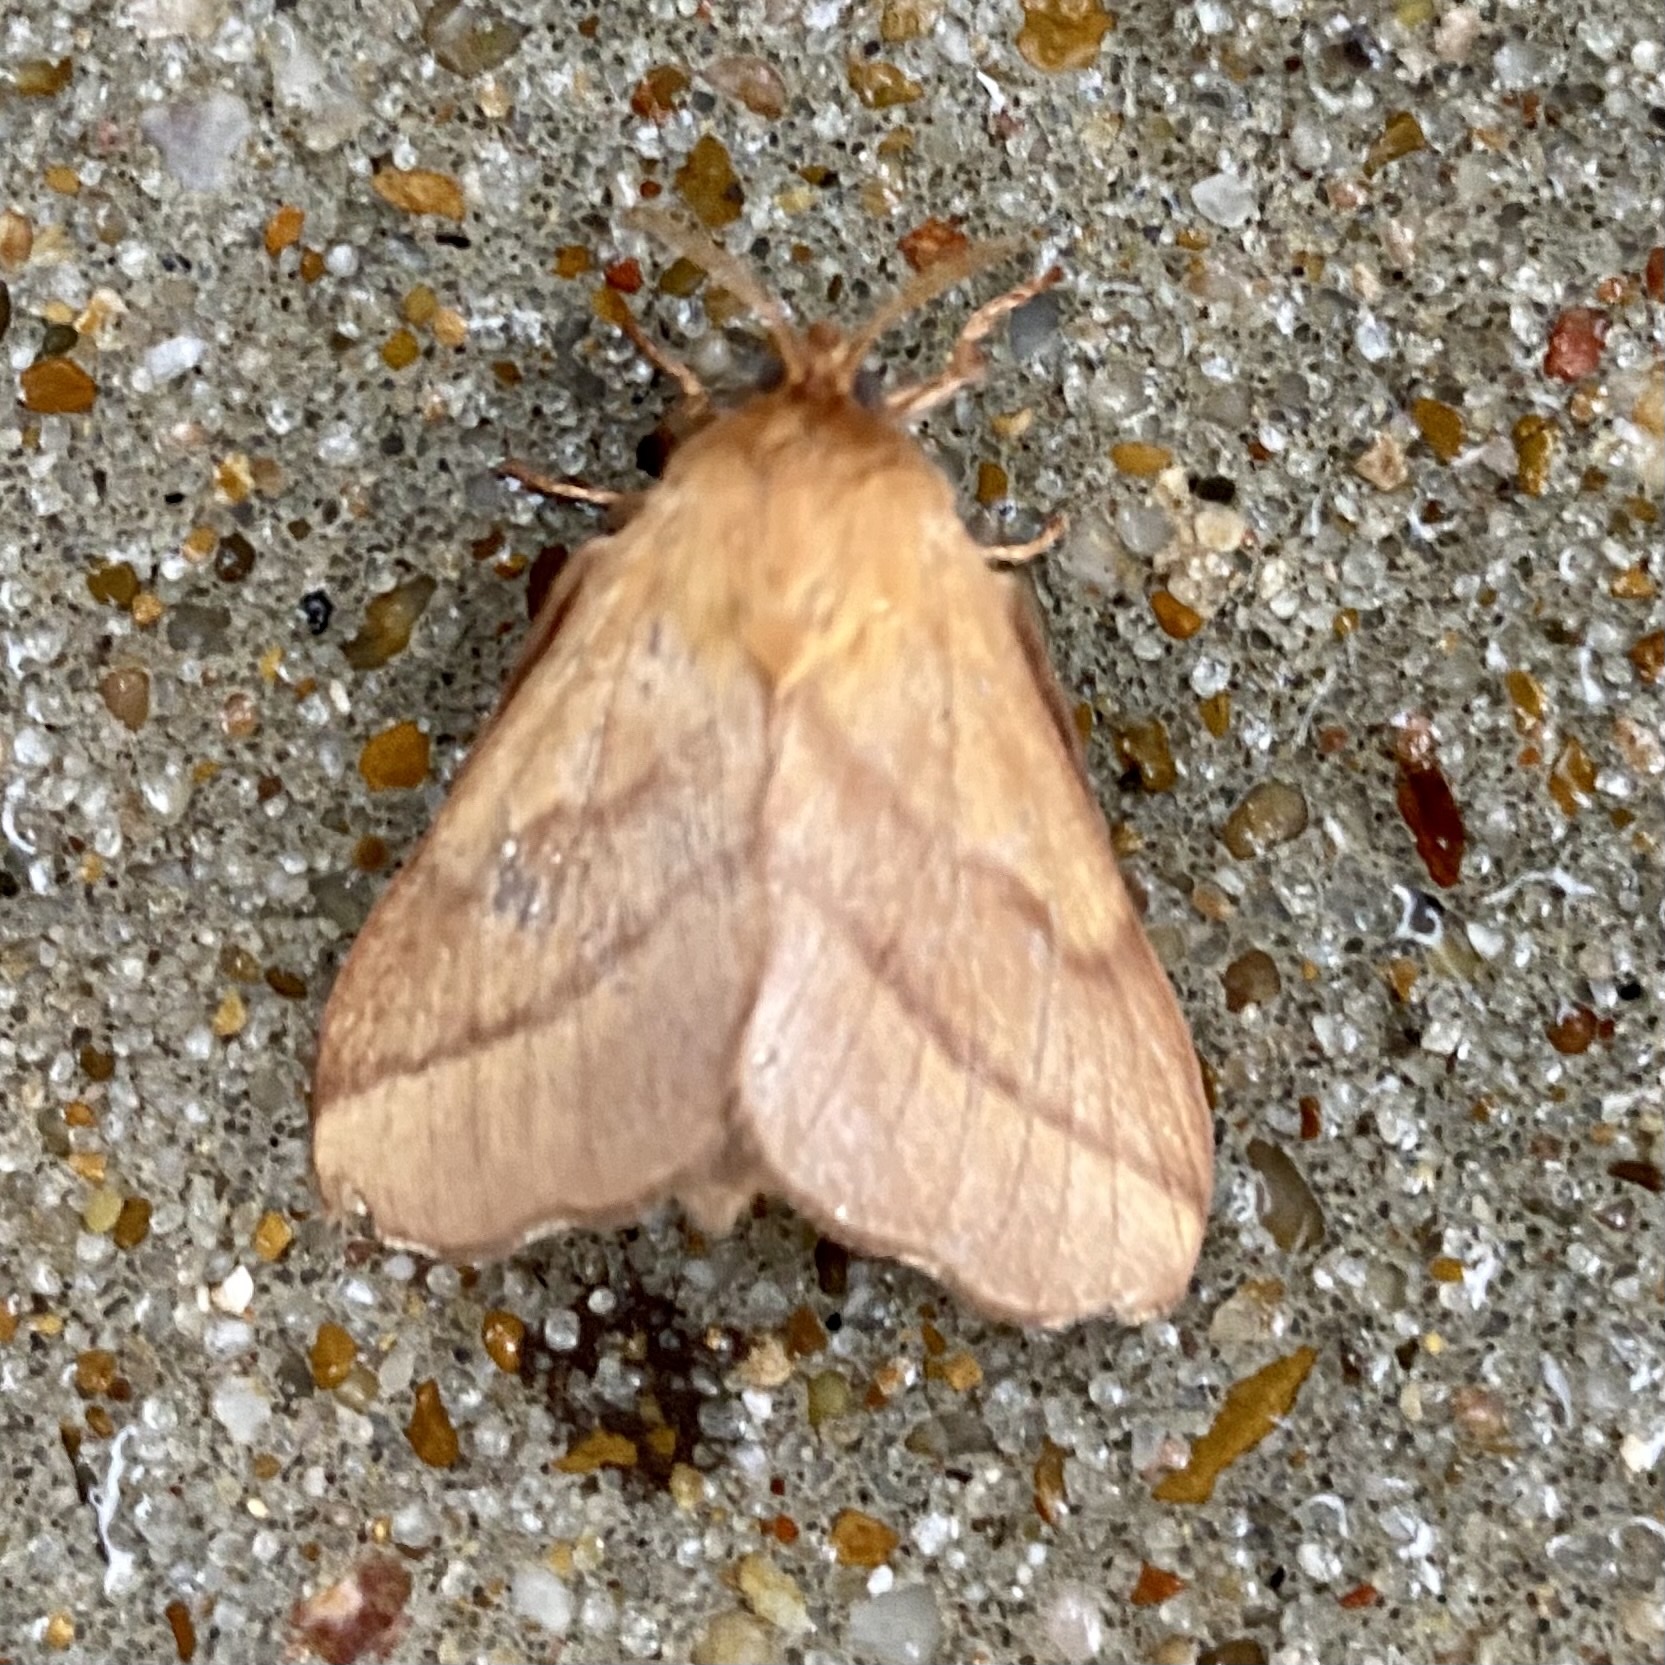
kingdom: Animalia
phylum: Arthropoda
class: Insecta
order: Lepidoptera
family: Lasiocampidae
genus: Malacosoma
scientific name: Malacosoma disstria
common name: Forest tent caterpillar
